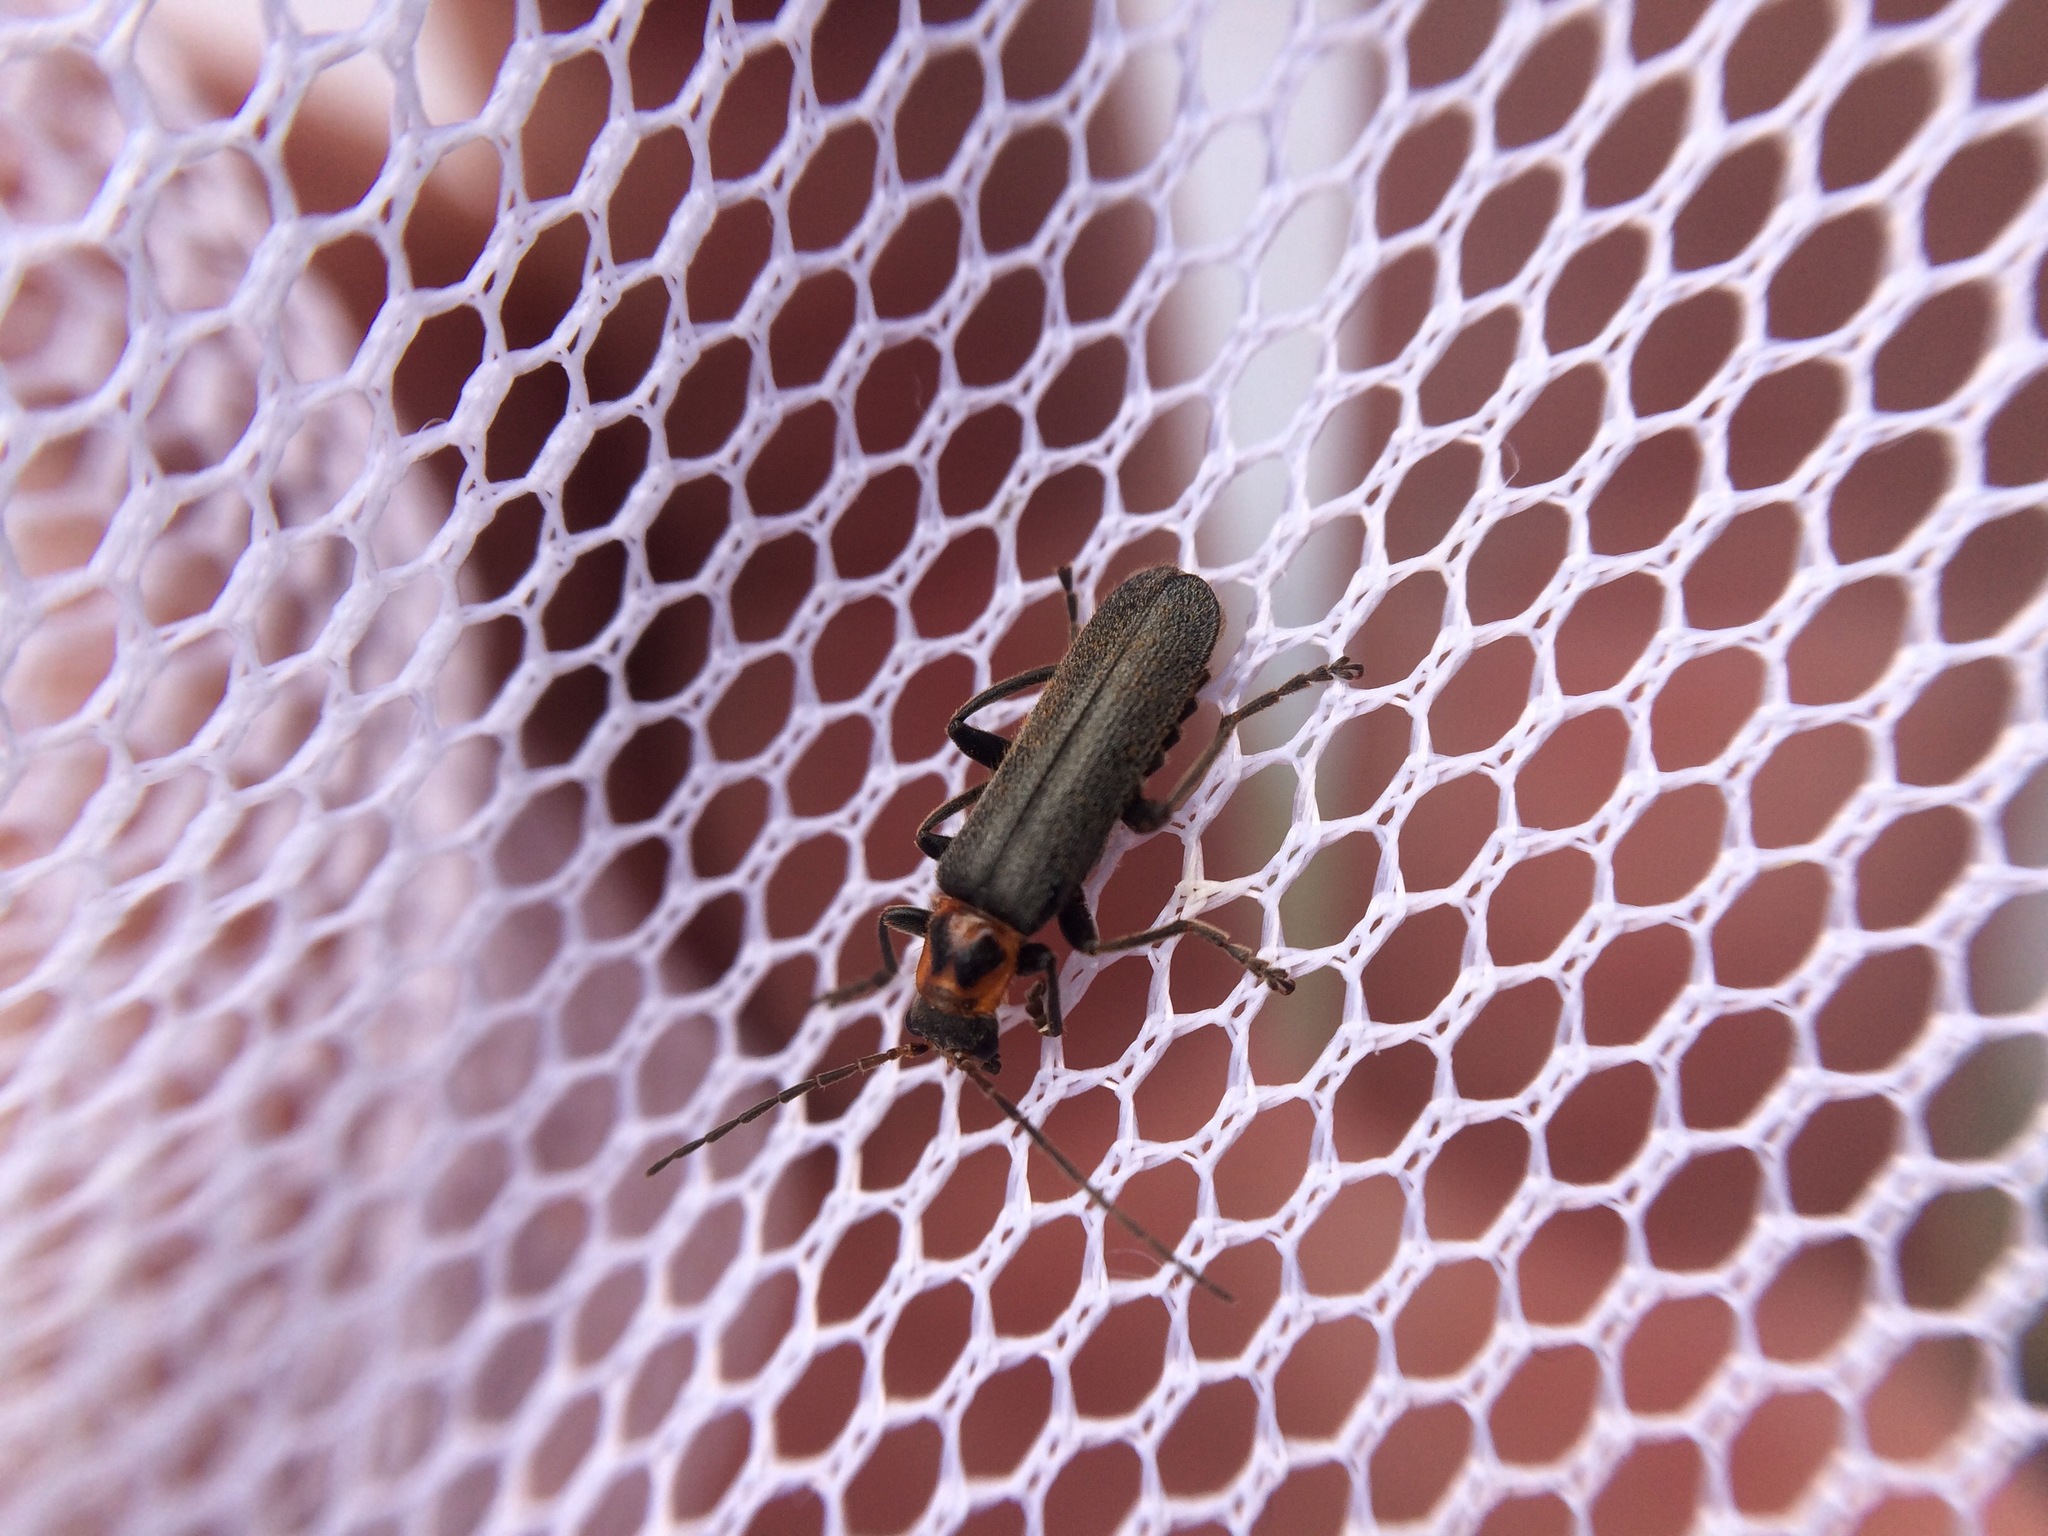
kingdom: Animalia
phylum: Arthropoda
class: Insecta
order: Coleoptera
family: Cantharidae
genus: Cyrtomoptera
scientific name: Cyrtomoptera divisa
